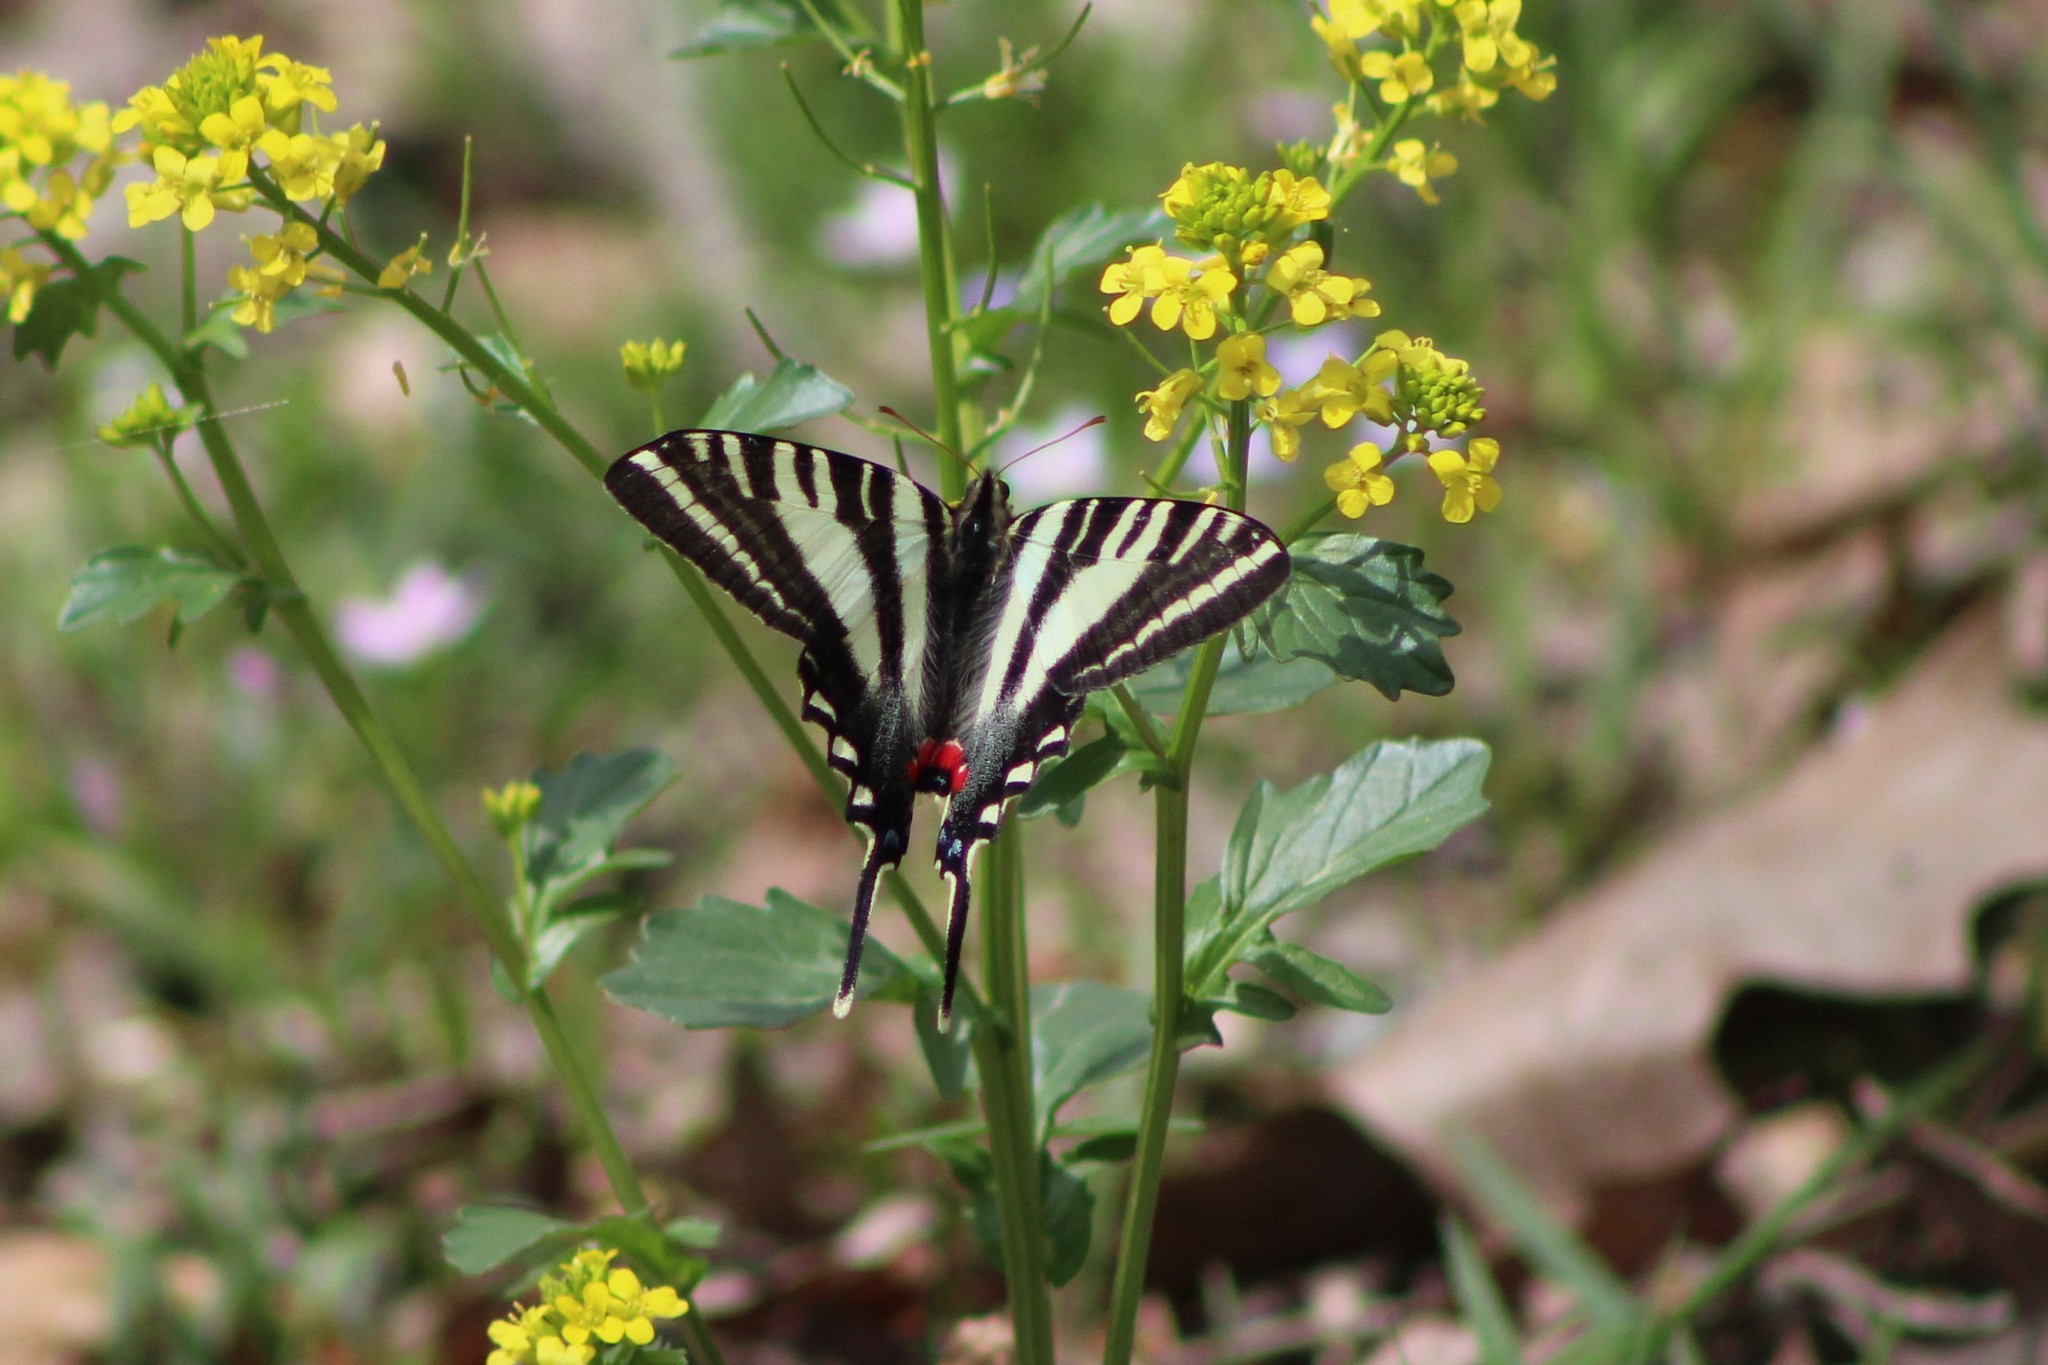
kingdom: Animalia
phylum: Arthropoda
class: Insecta
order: Lepidoptera
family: Papilionidae
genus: Protographium
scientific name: Protographium marcellus
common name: Zebra swallowtail
